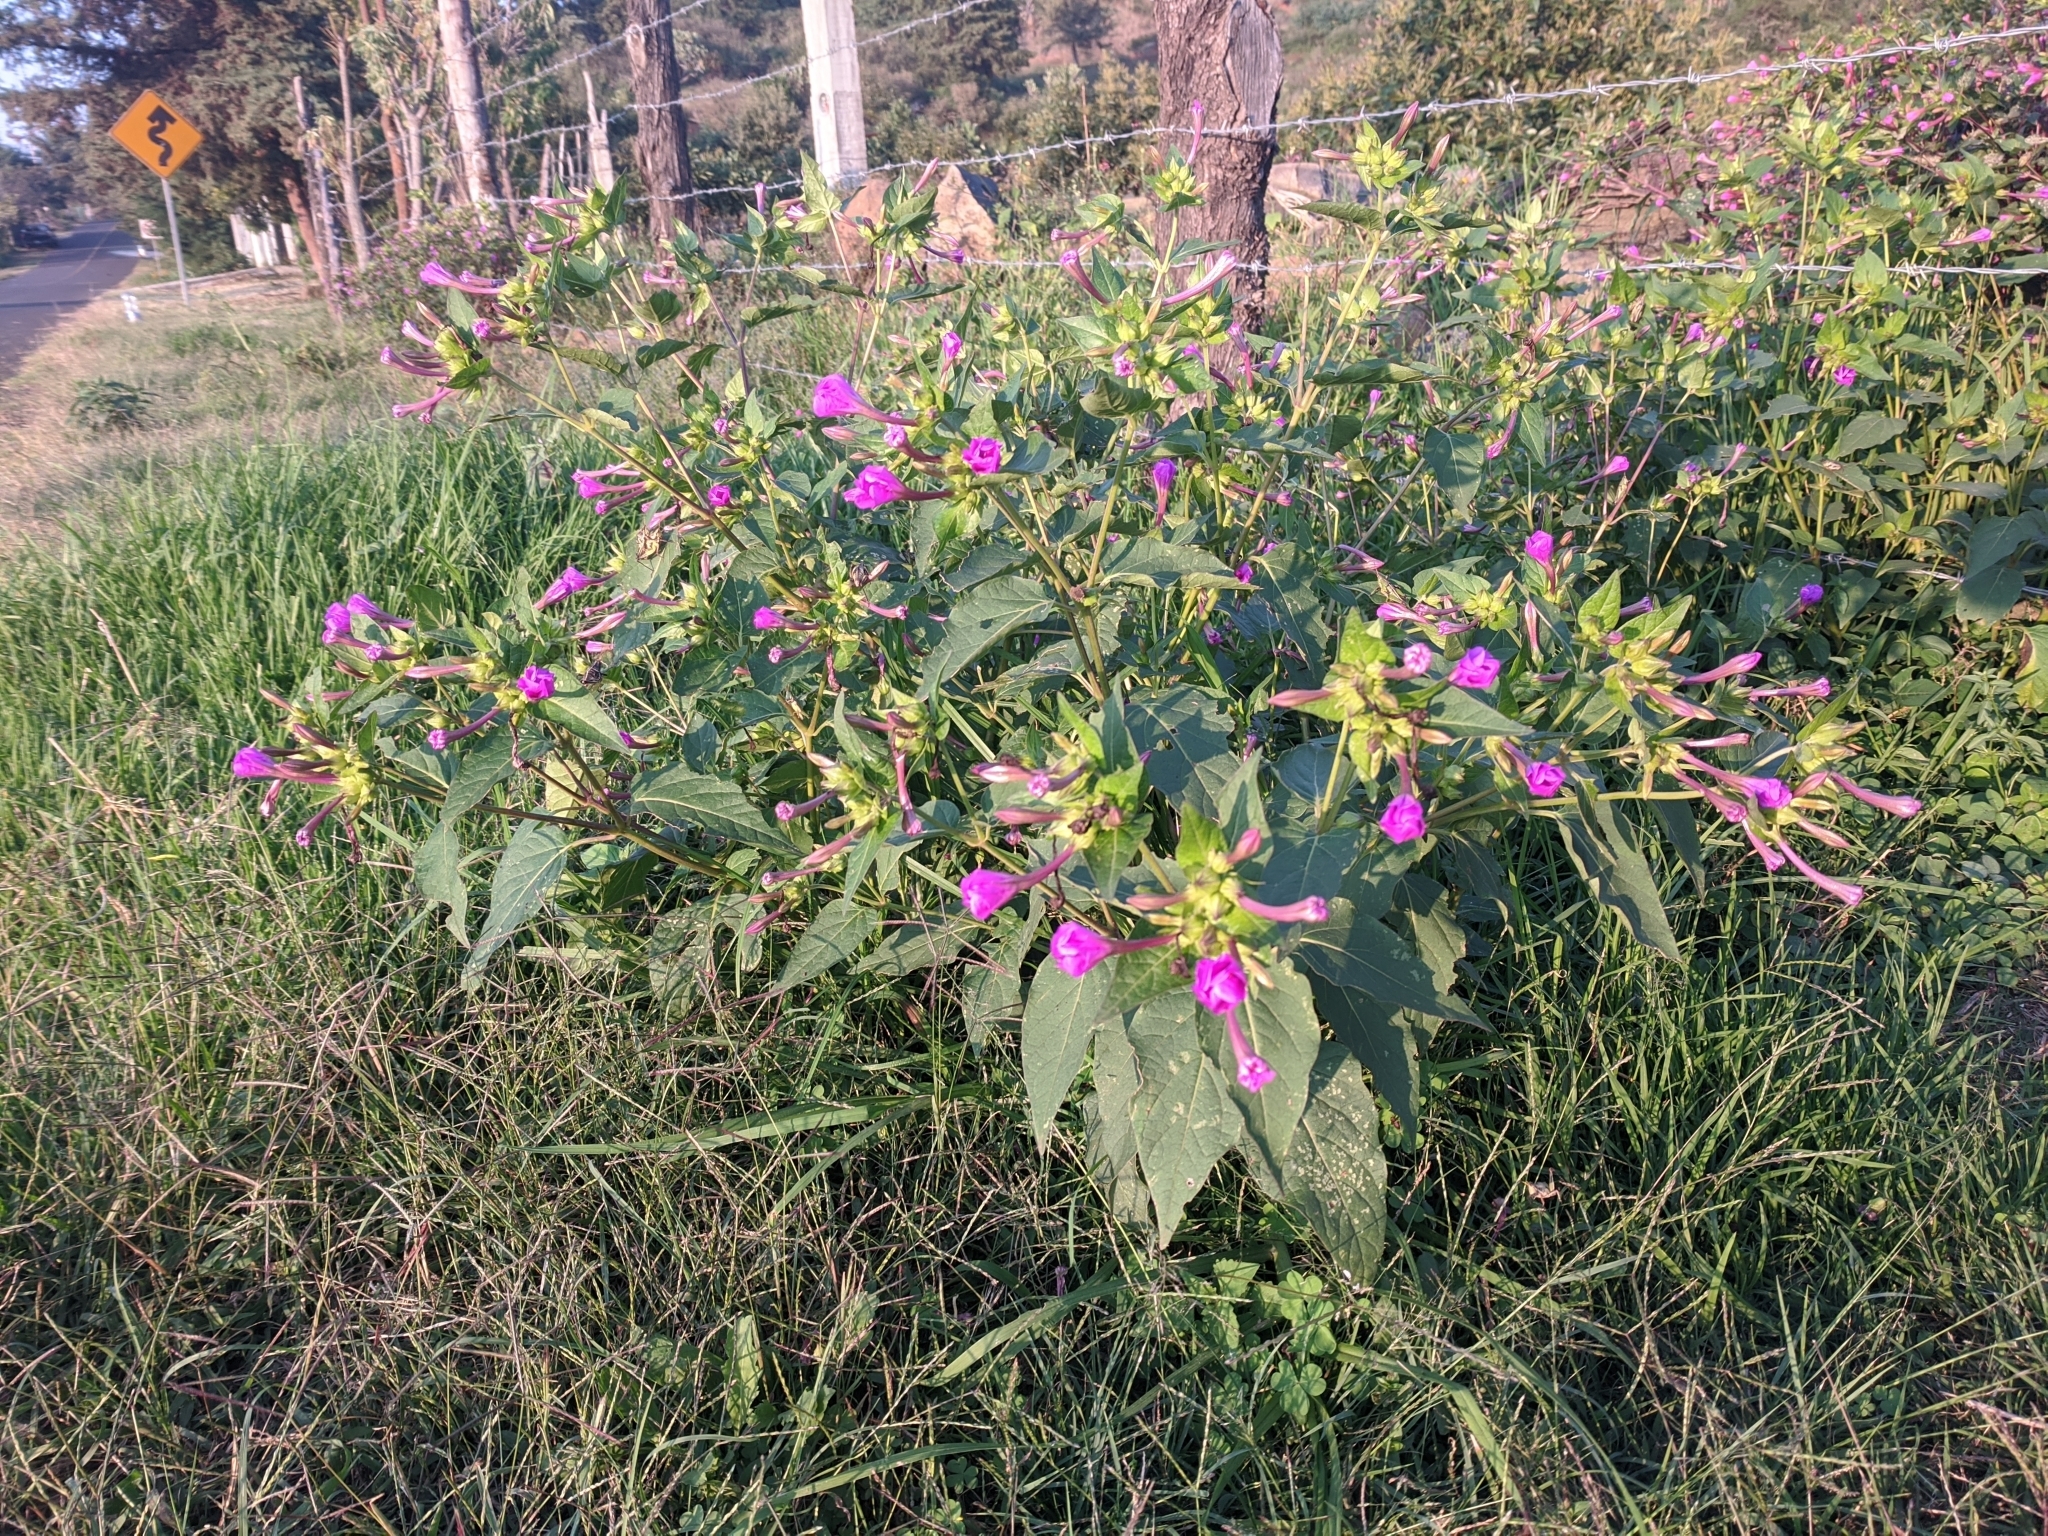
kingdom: Plantae
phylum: Tracheophyta
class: Magnoliopsida
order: Caryophyllales
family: Nyctaginaceae
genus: Mirabilis
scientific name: Mirabilis jalapa
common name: Marvel-of-peru
